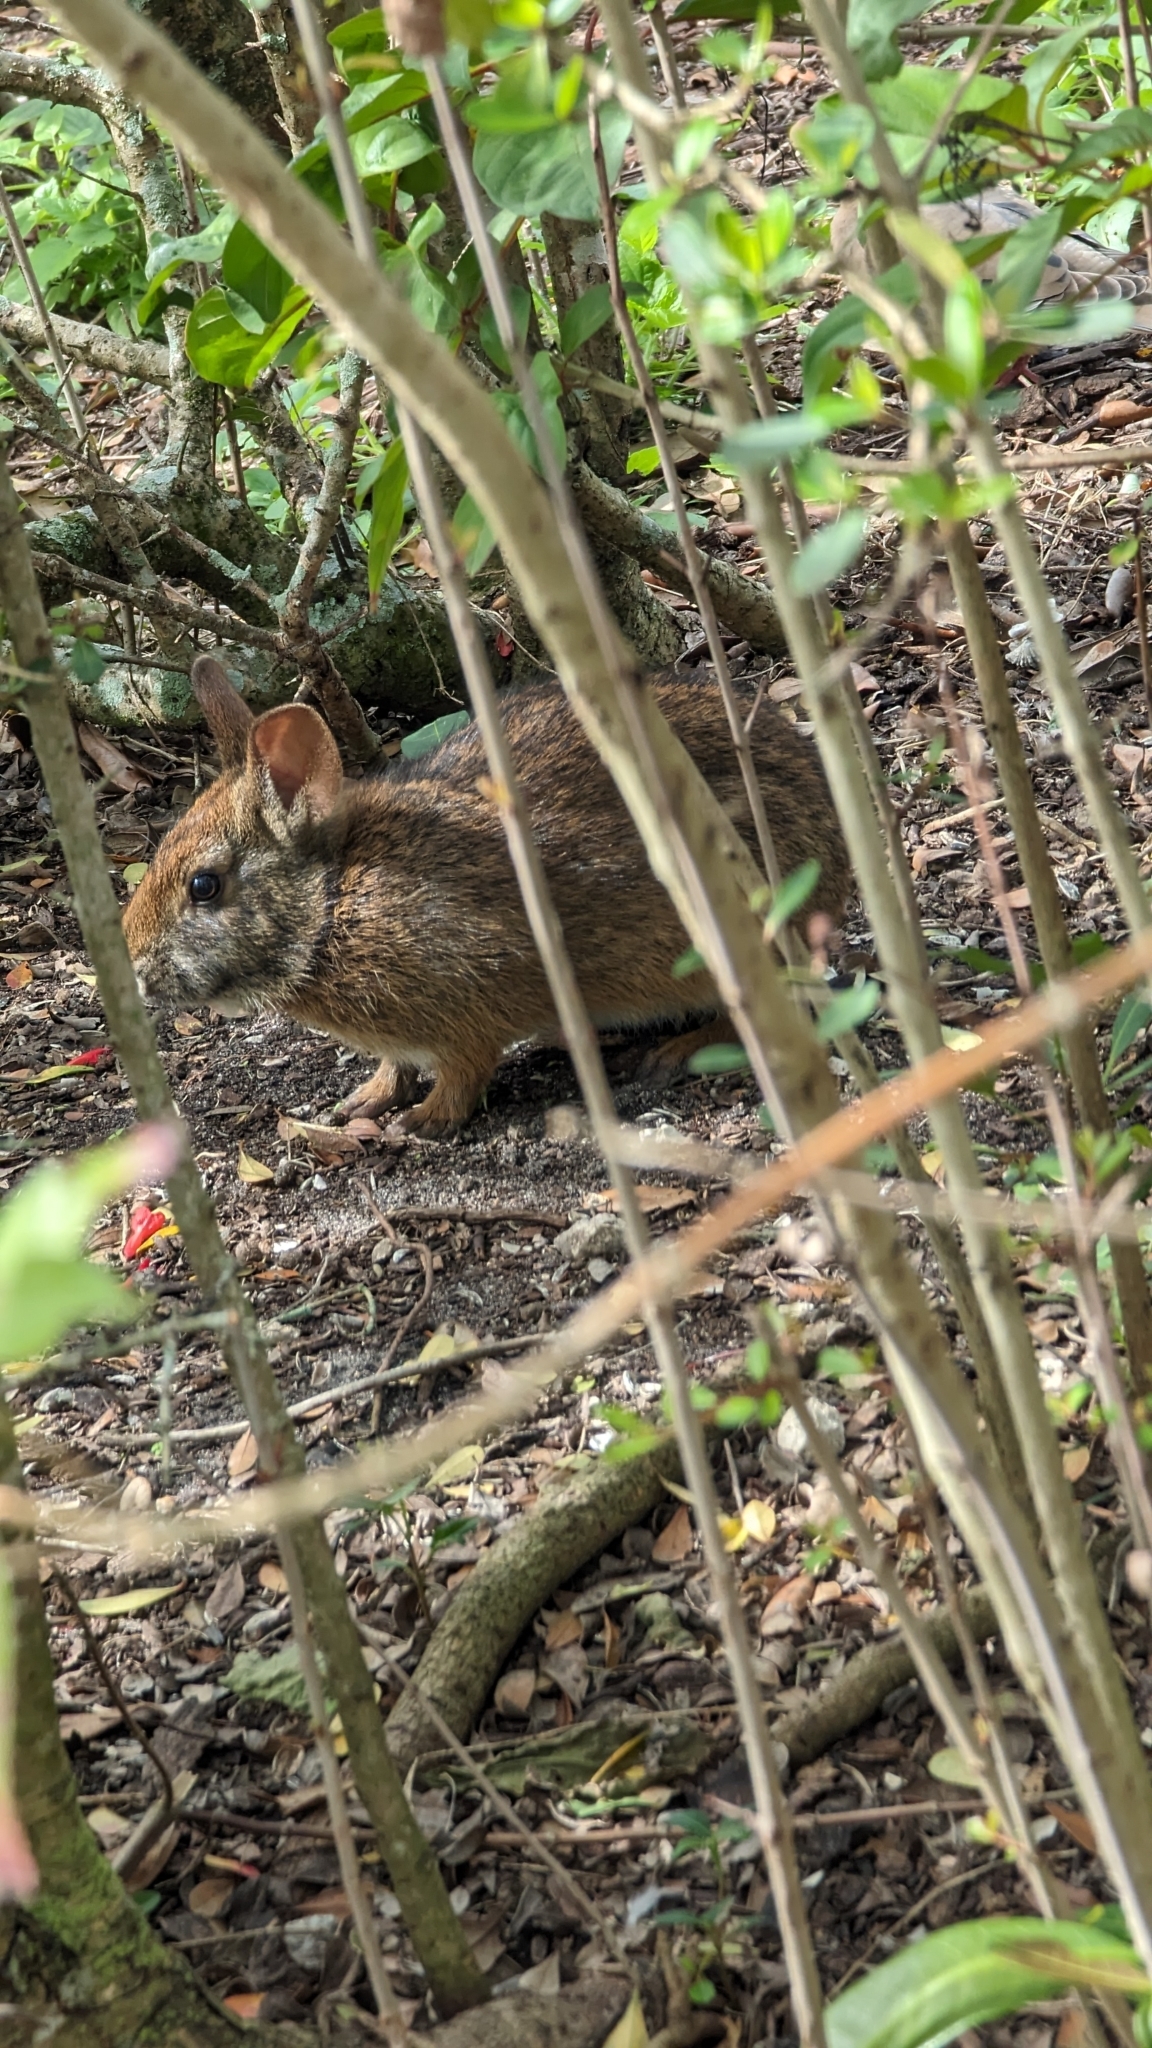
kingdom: Animalia
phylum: Chordata
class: Mammalia
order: Lagomorpha
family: Leporidae
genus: Sylvilagus
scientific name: Sylvilagus palustris
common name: Marsh rabbit
